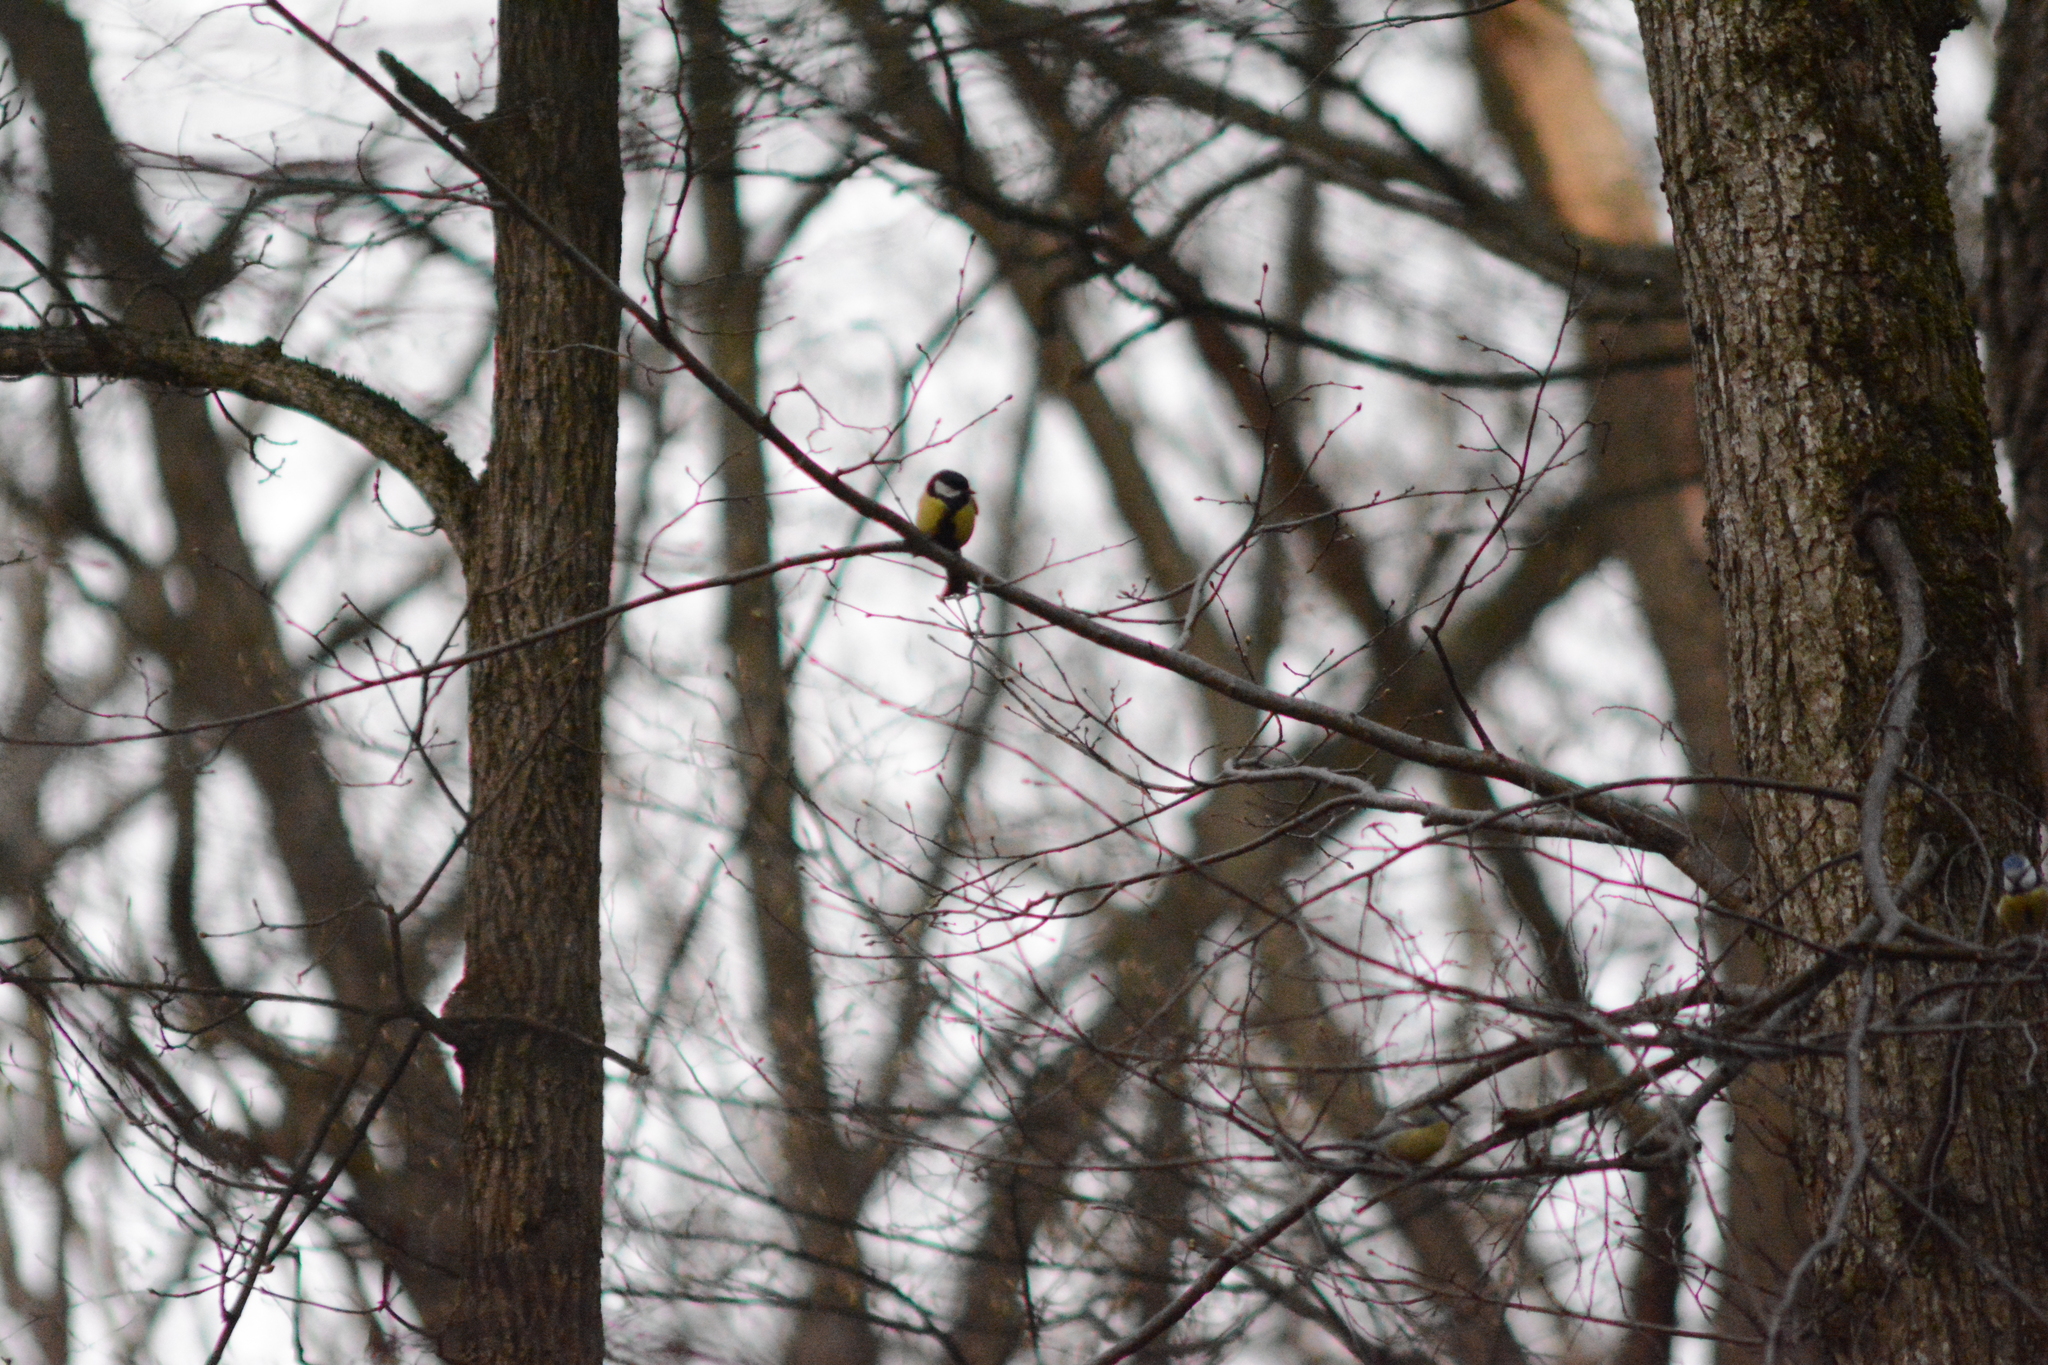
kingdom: Animalia
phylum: Chordata
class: Aves
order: Passeriformes
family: Paridae
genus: Parus
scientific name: Parus major
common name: Great tit
